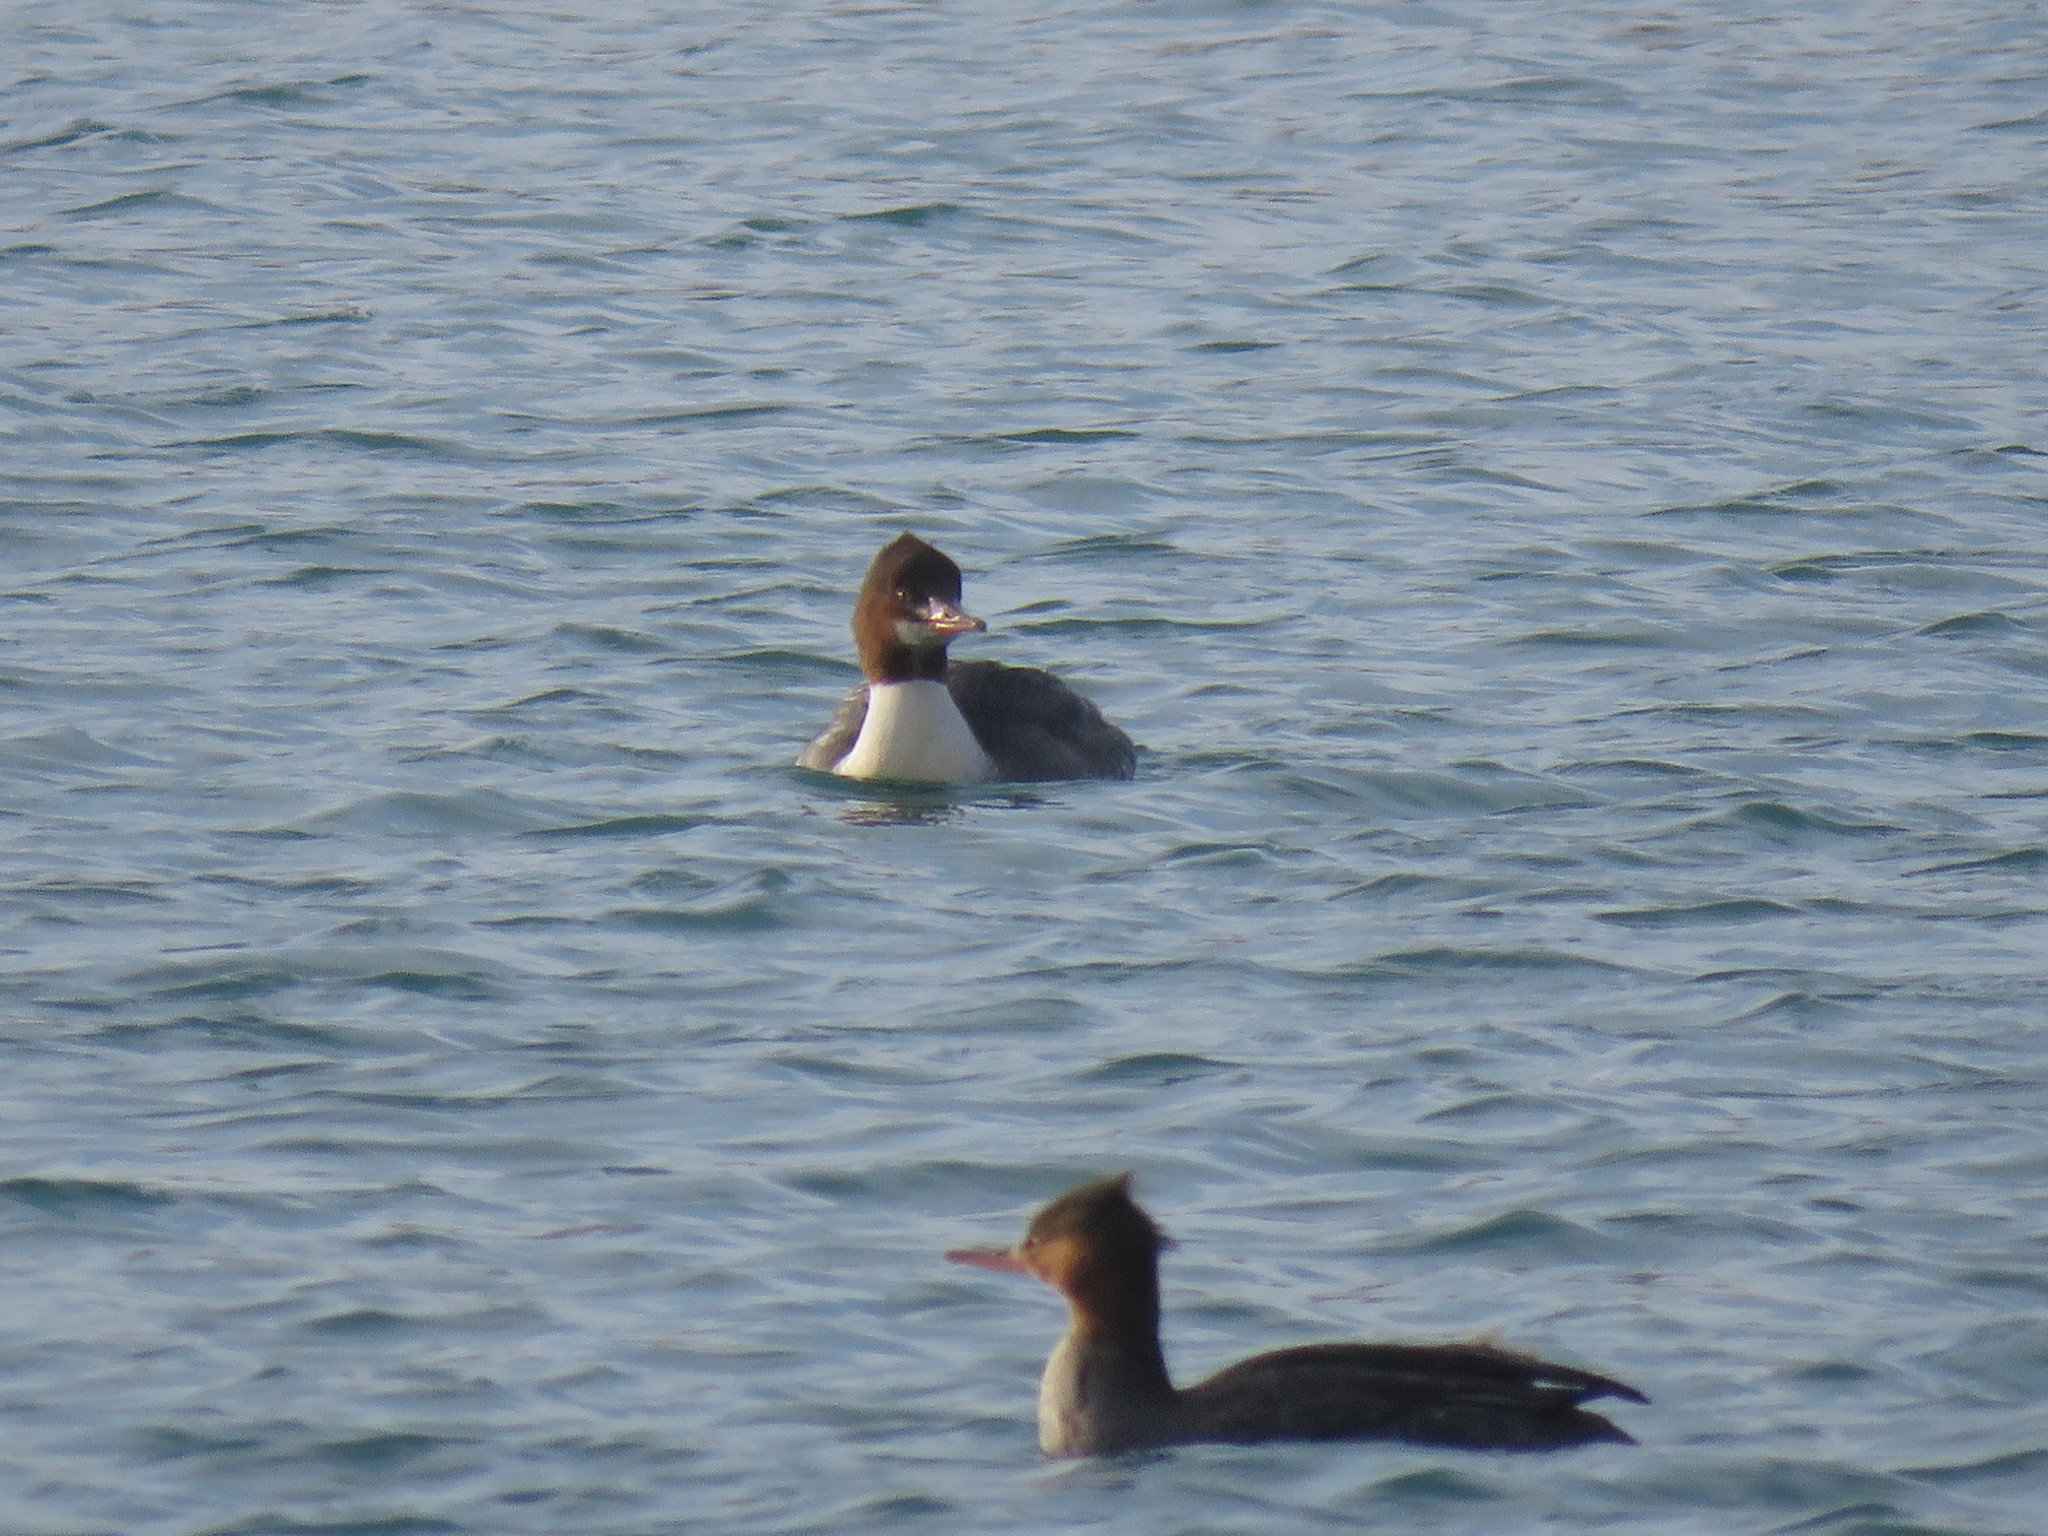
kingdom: Animalia
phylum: Chordata
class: Aves
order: Anseriformes
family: Anatidae
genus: Mergus
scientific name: Mergus merganser
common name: Common merganser
